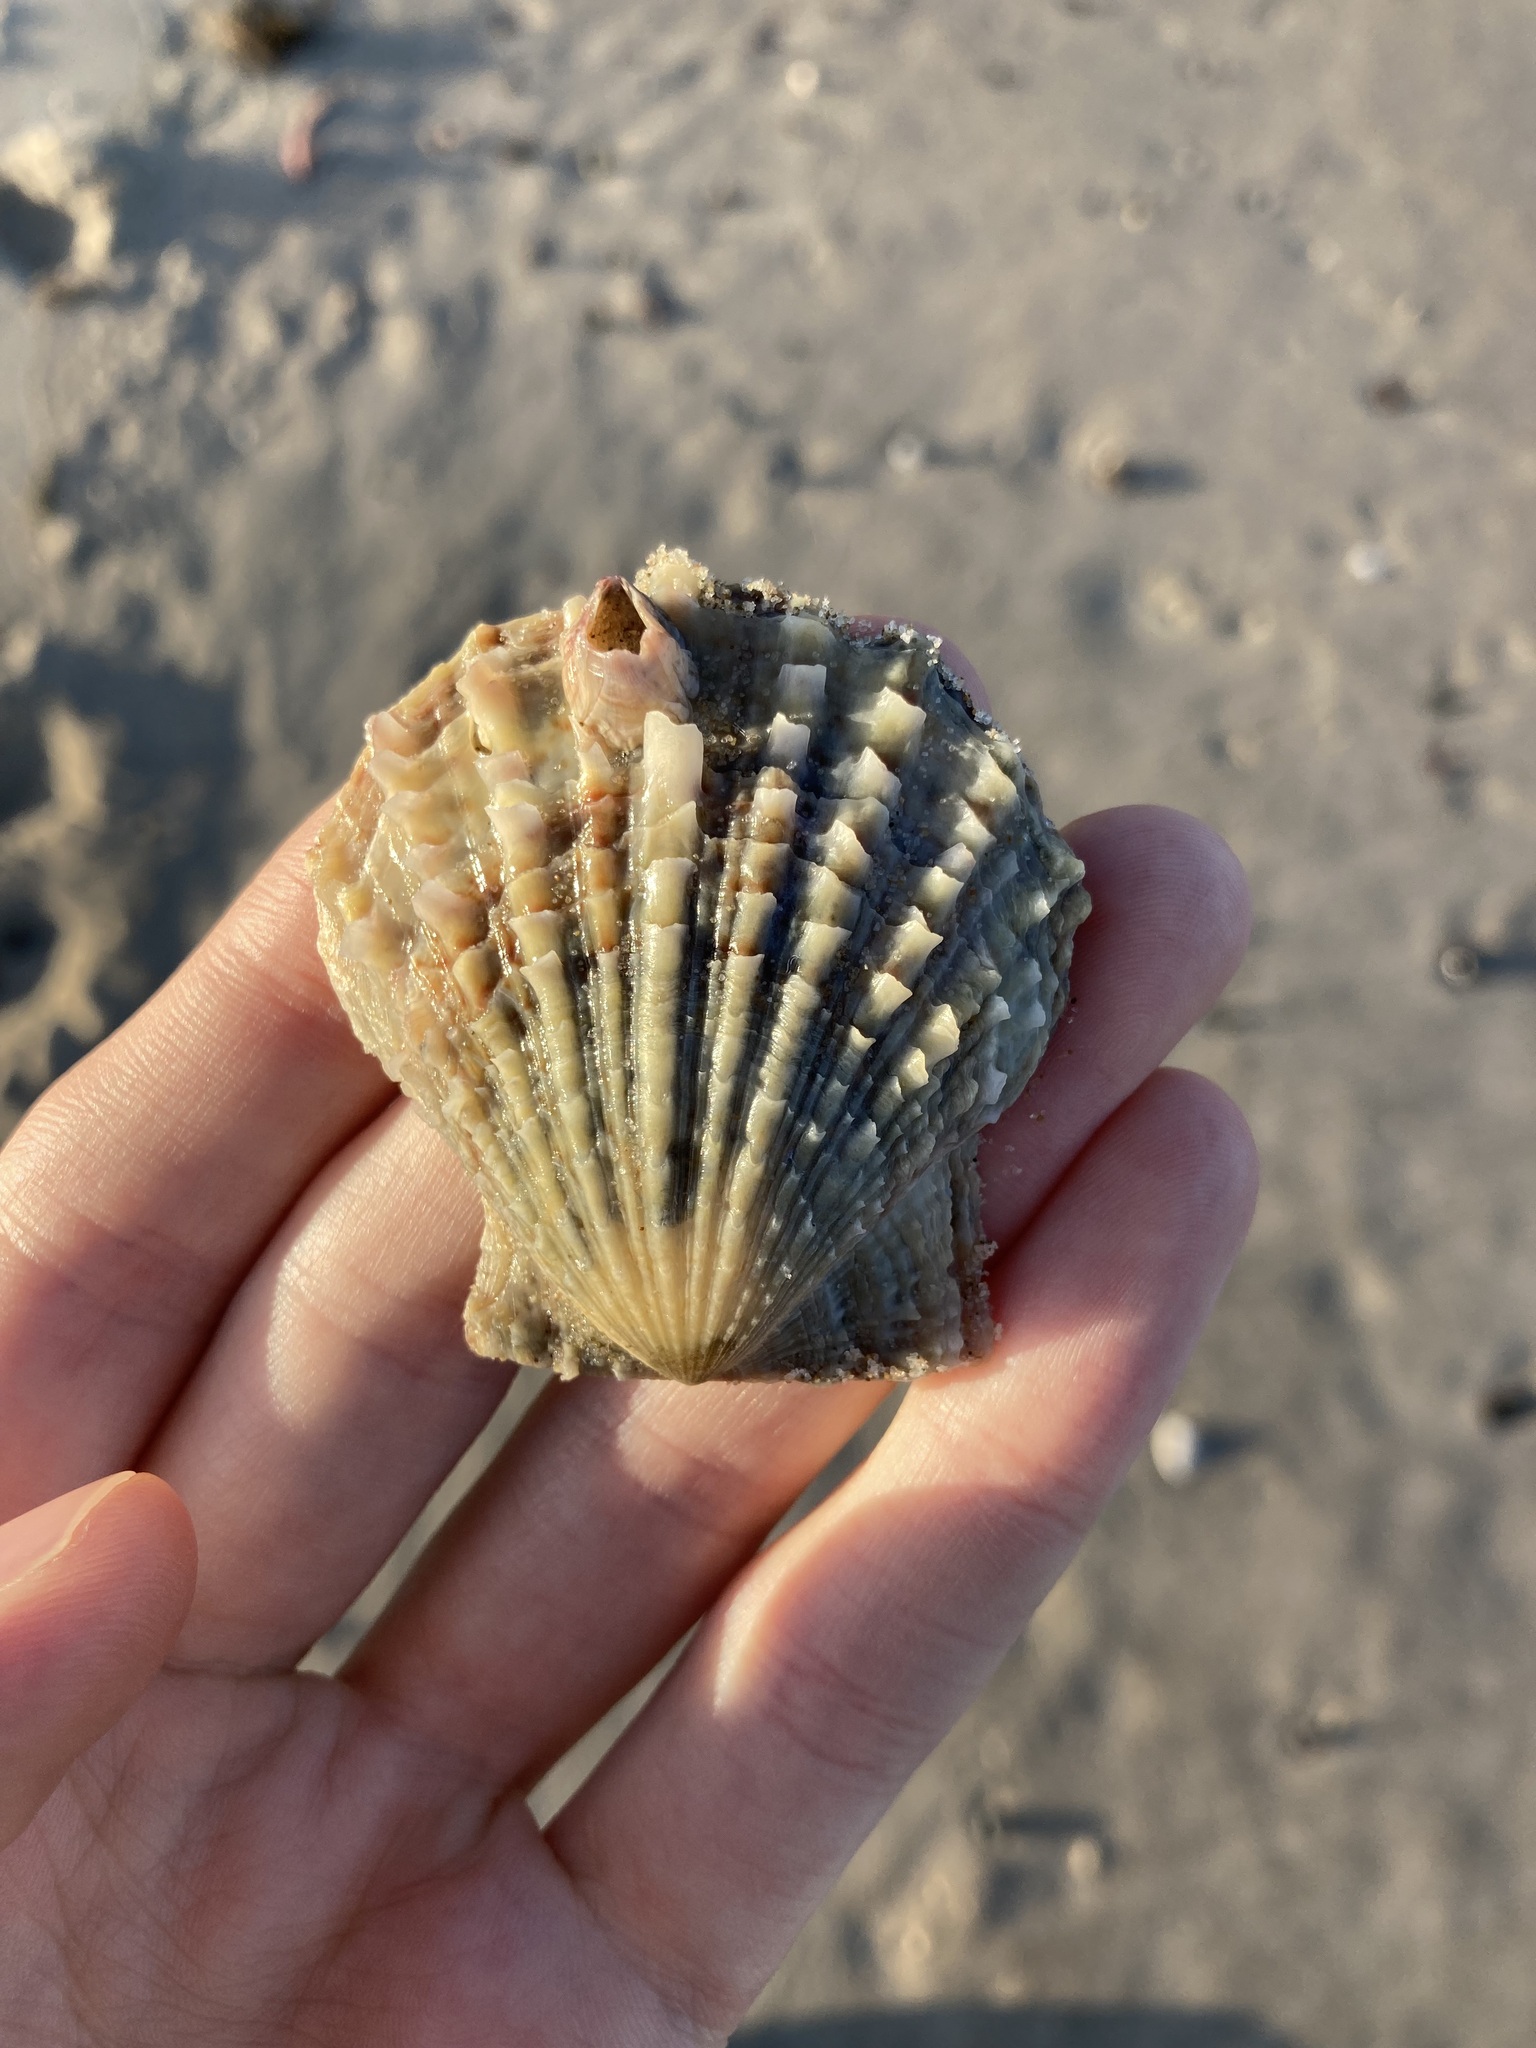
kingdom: Animalia
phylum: Mollusca
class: Bivalvia
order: Pectinida
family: Pectinidae
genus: Scaeochlamys
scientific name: Scaeochlamys livida
